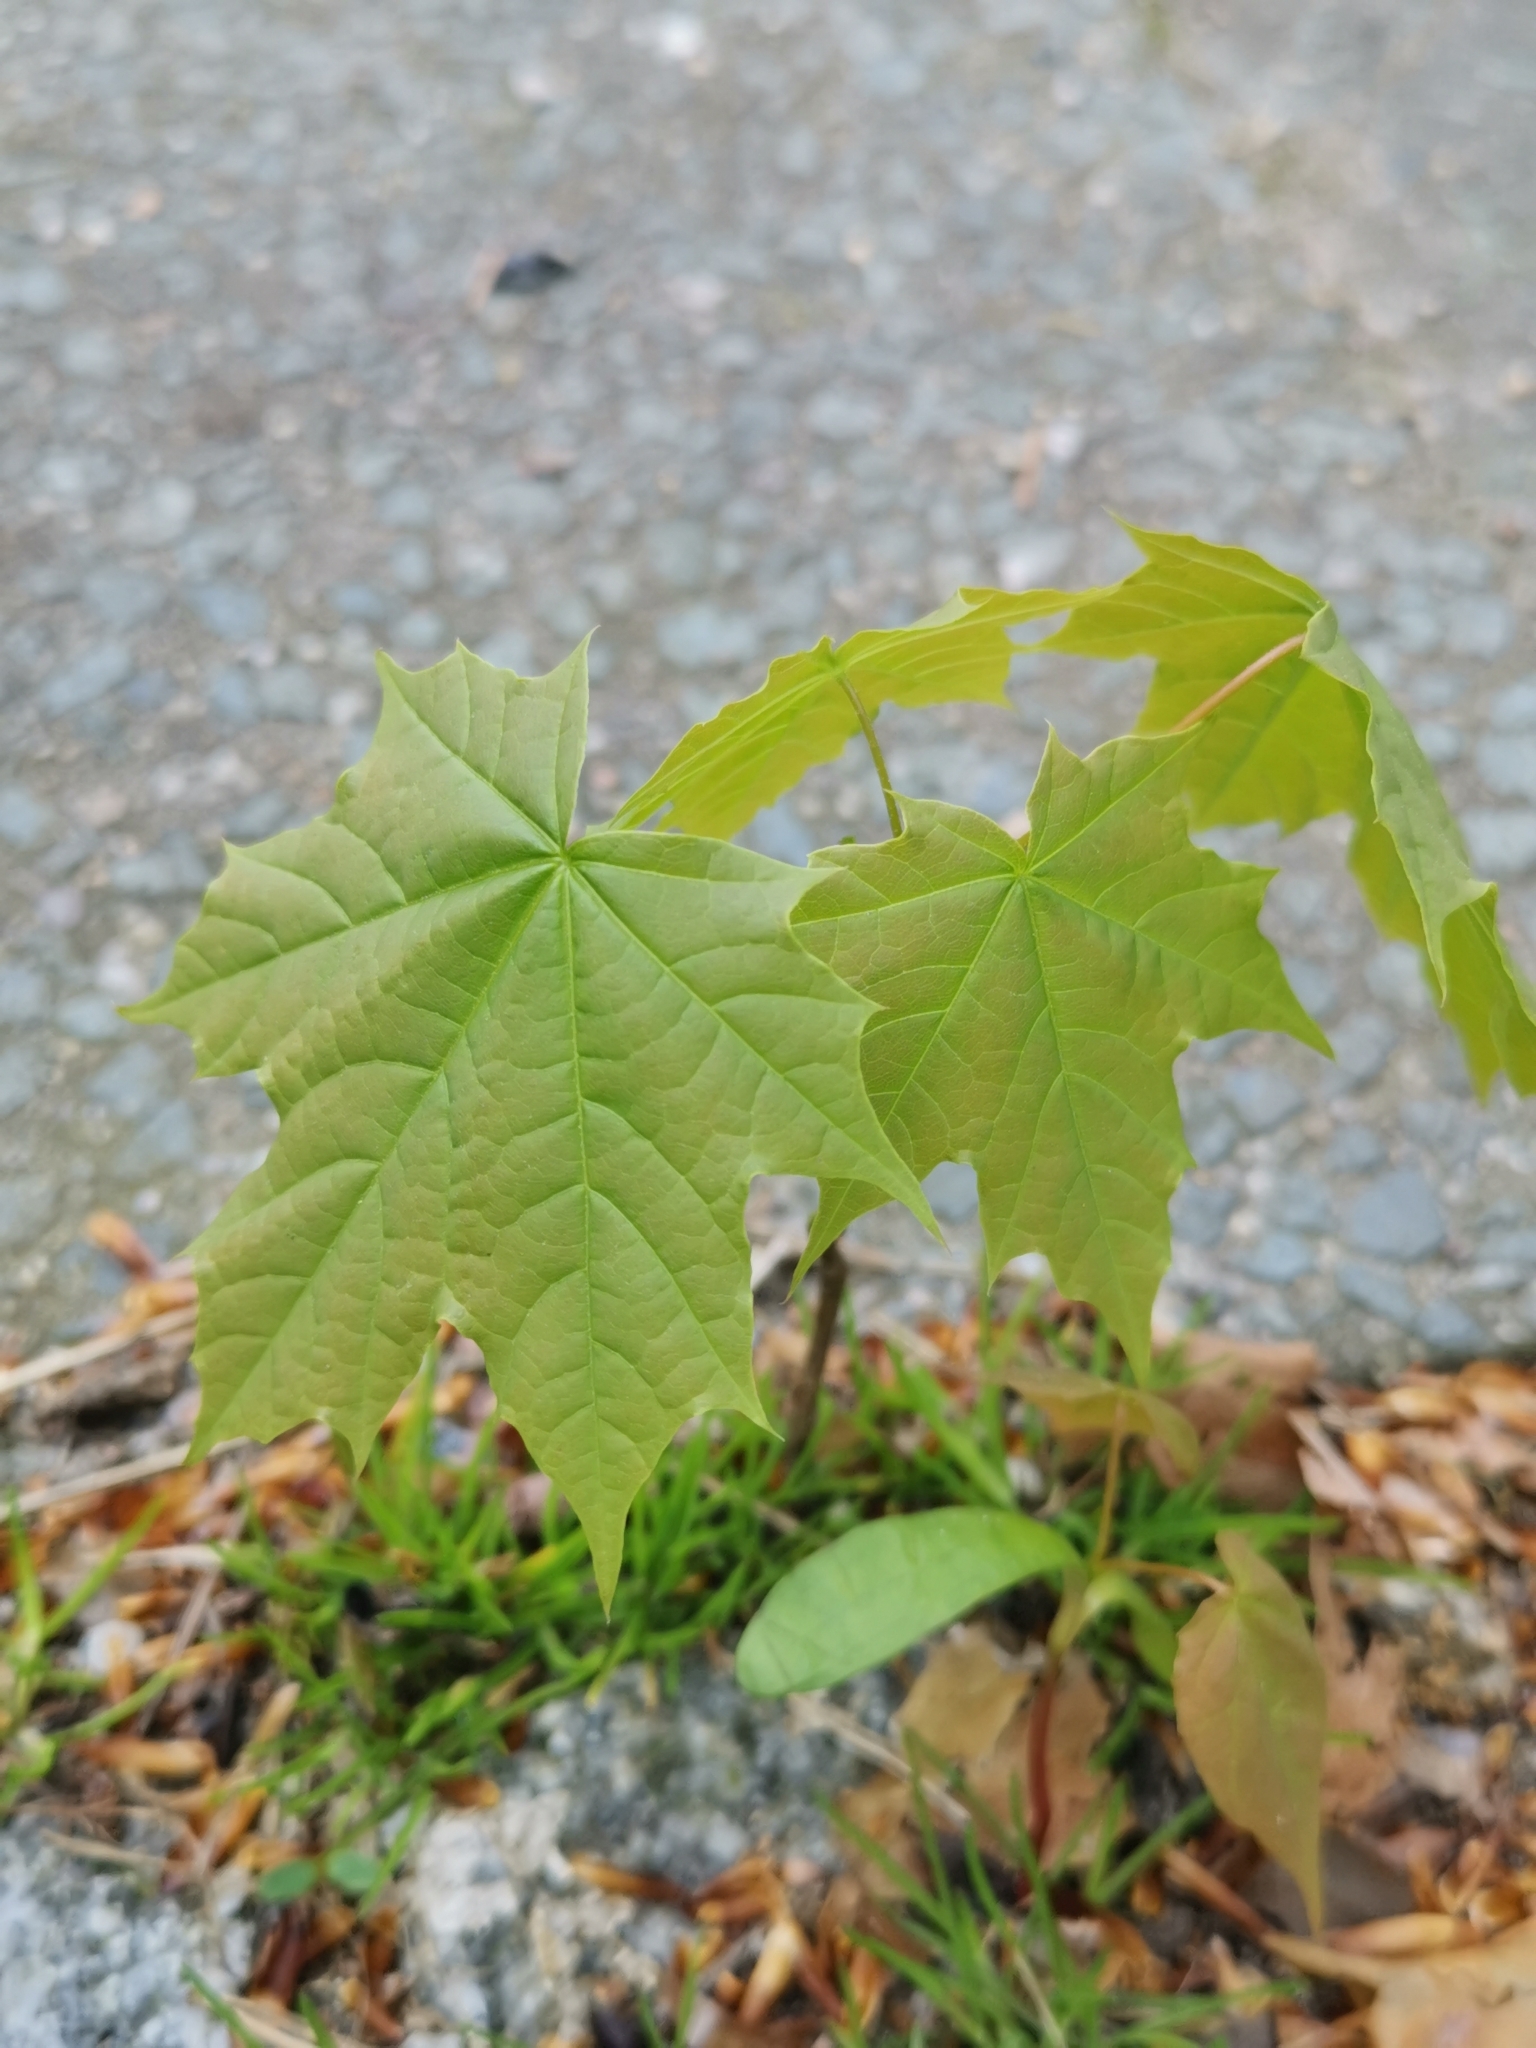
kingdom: Plantae
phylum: Tracheophyta
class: Magnoliopsida
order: Sapindales
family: Sapindaceae
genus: Acer
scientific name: Acer platanoides
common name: Norway maple
